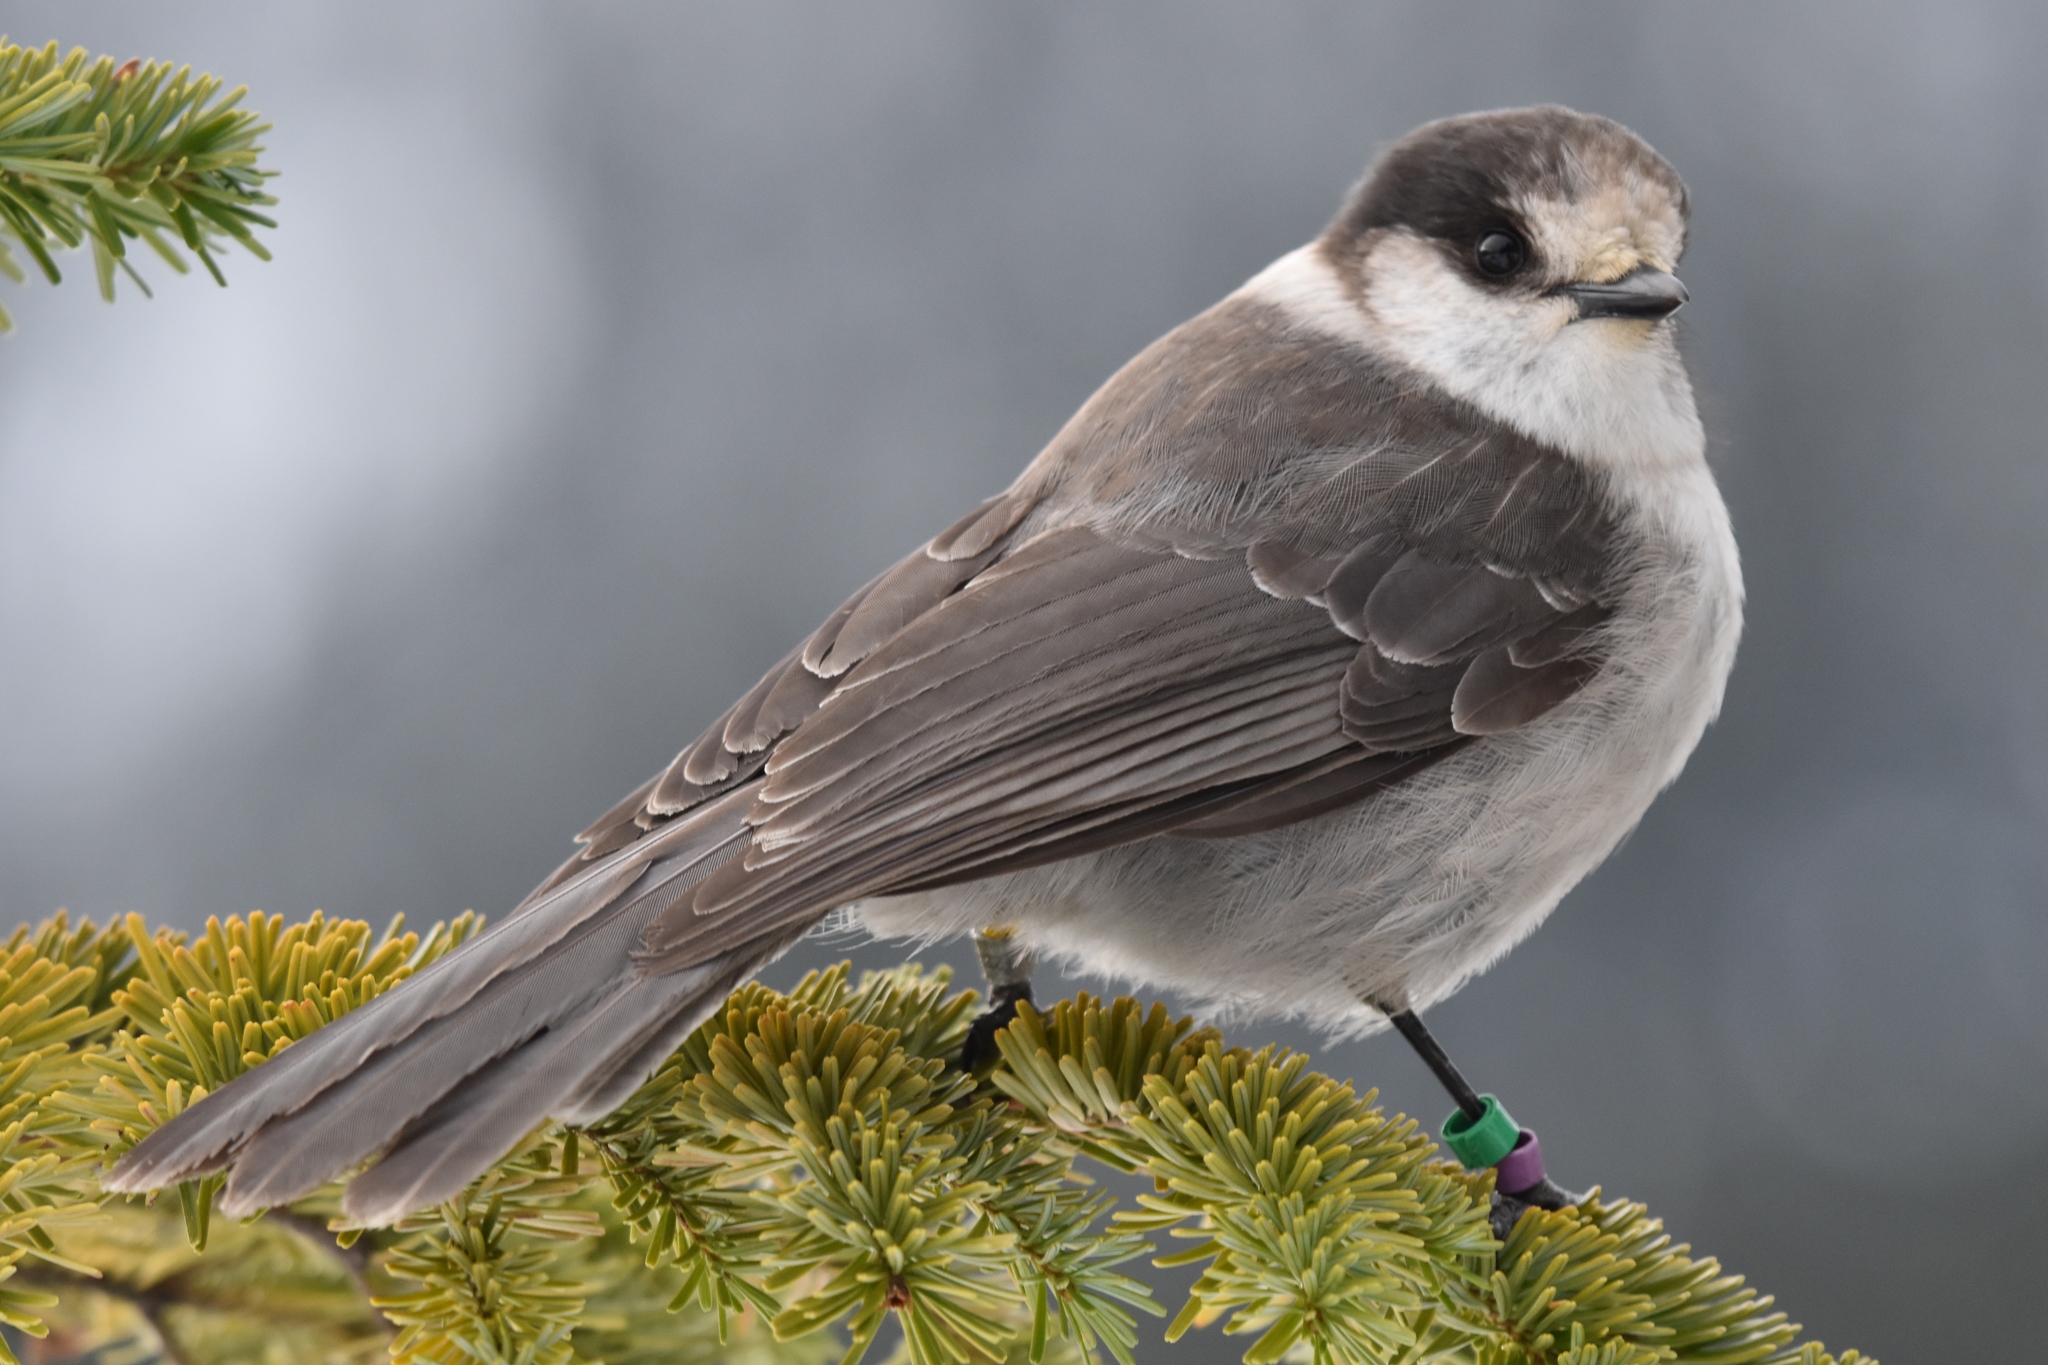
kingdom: Animalia
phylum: Chordata
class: Aves
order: Passeriformes
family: Corvidae
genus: Perisoreus
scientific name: Perisoreus canadensis
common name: Gray jay
